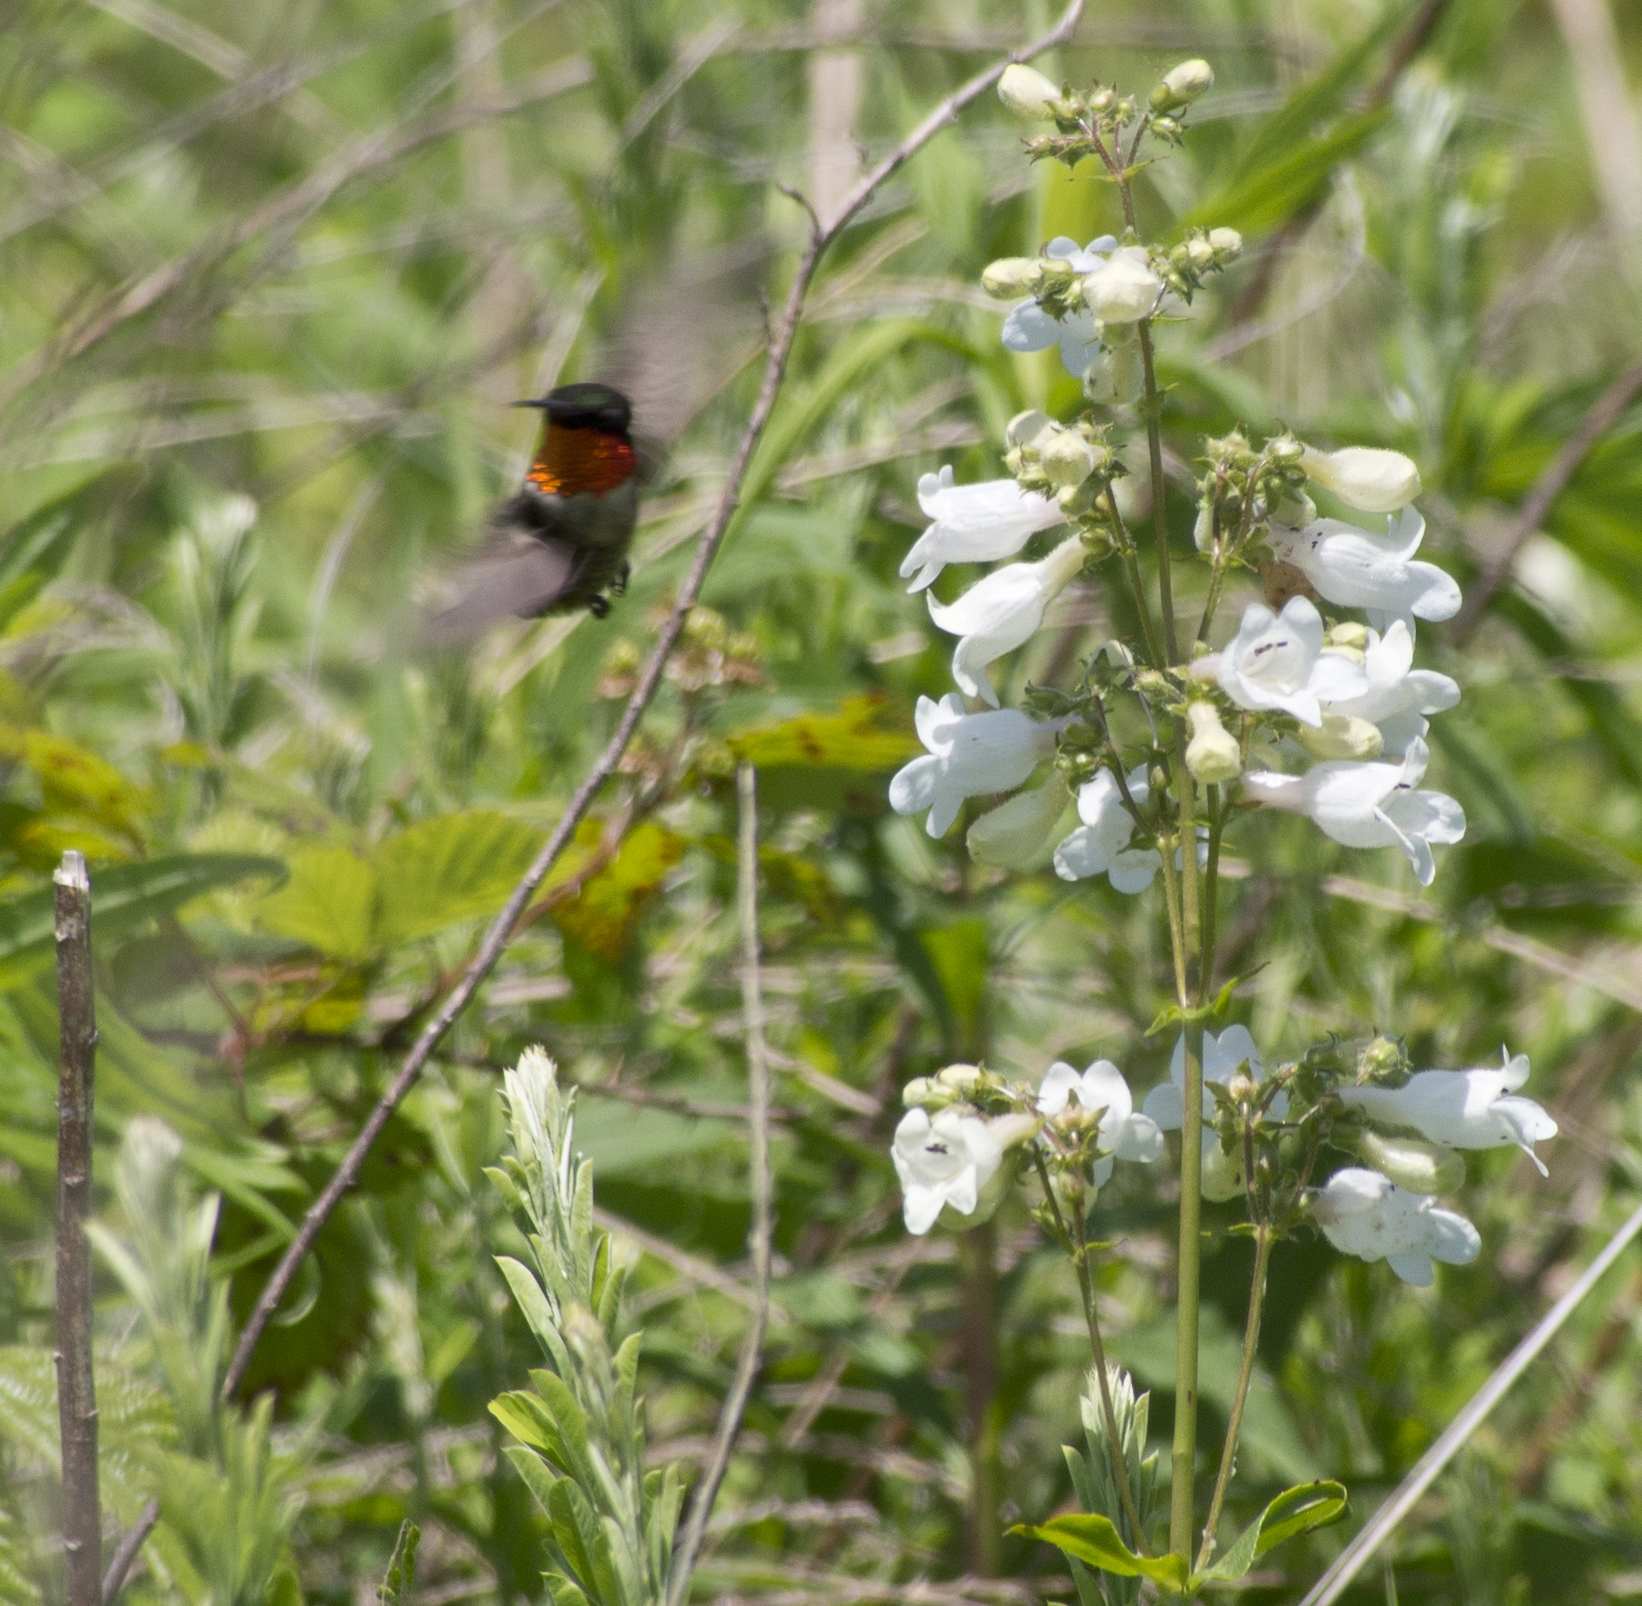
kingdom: Animalia
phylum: Chordata
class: Aves
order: Apodiformes
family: Trochilidae
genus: Archilochus
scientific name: Archilochus colubris
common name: Ruby-throated hummingbird
